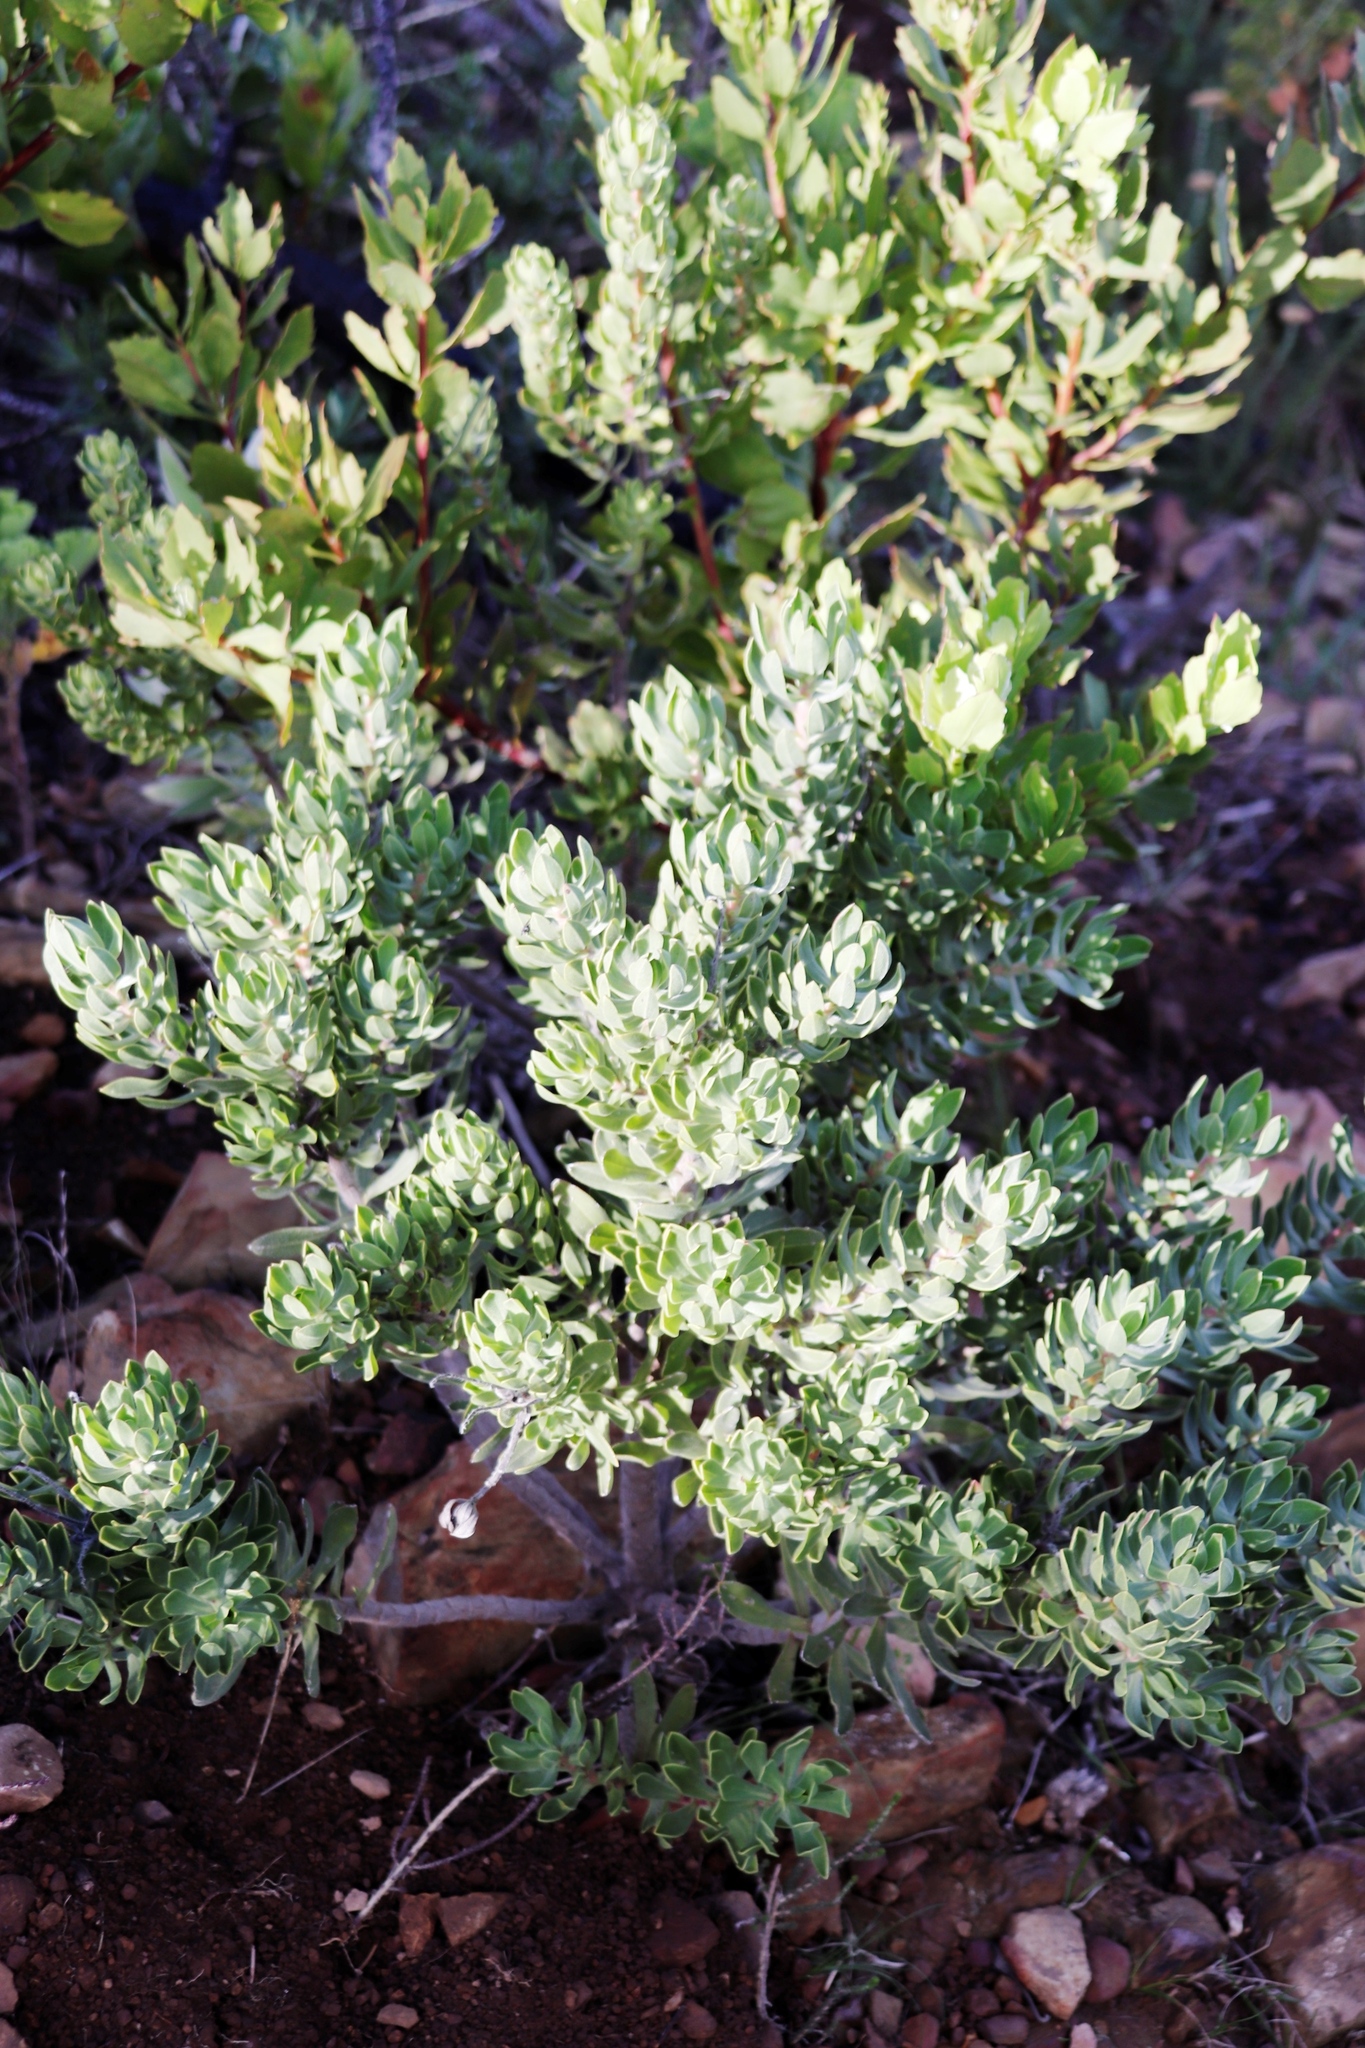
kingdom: Plantae
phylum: Tracheophyta
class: Magnoliopsida
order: Boraginales
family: Boraginaceae
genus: Lobostemon
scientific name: Lobostemon fruticosus
